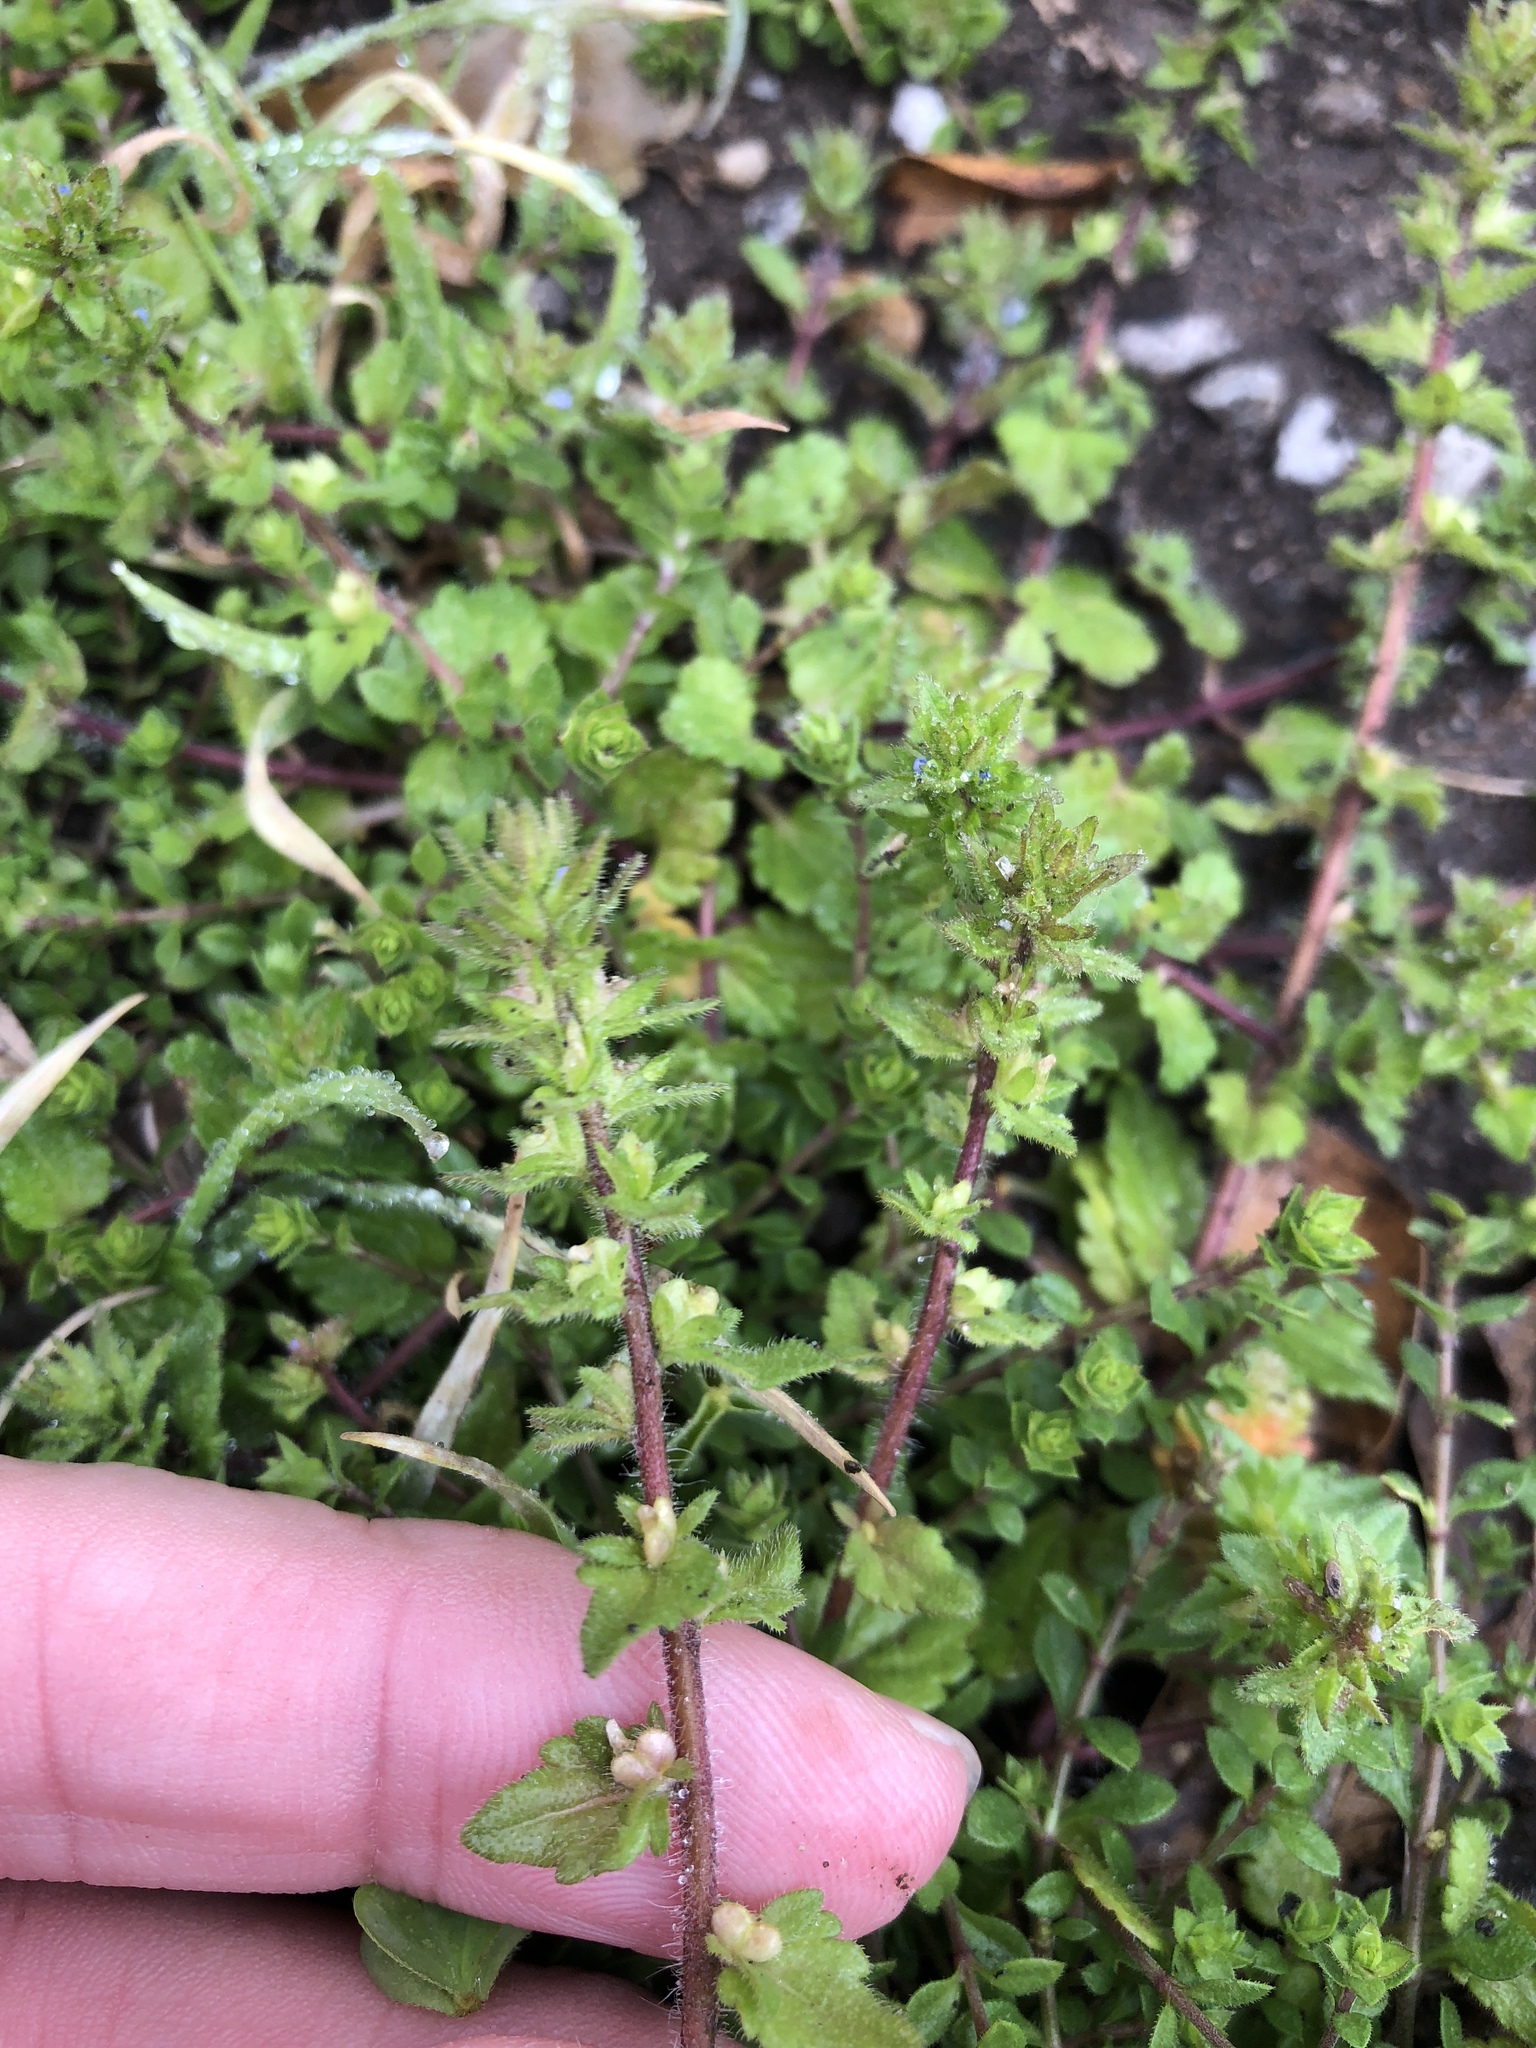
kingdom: Plantae
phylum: Tracheophyta
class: Magnoliopsida
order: Lamiales
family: Plantaginaceae
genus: Veronica
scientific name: Veronica arvensis
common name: Corn speedwell
